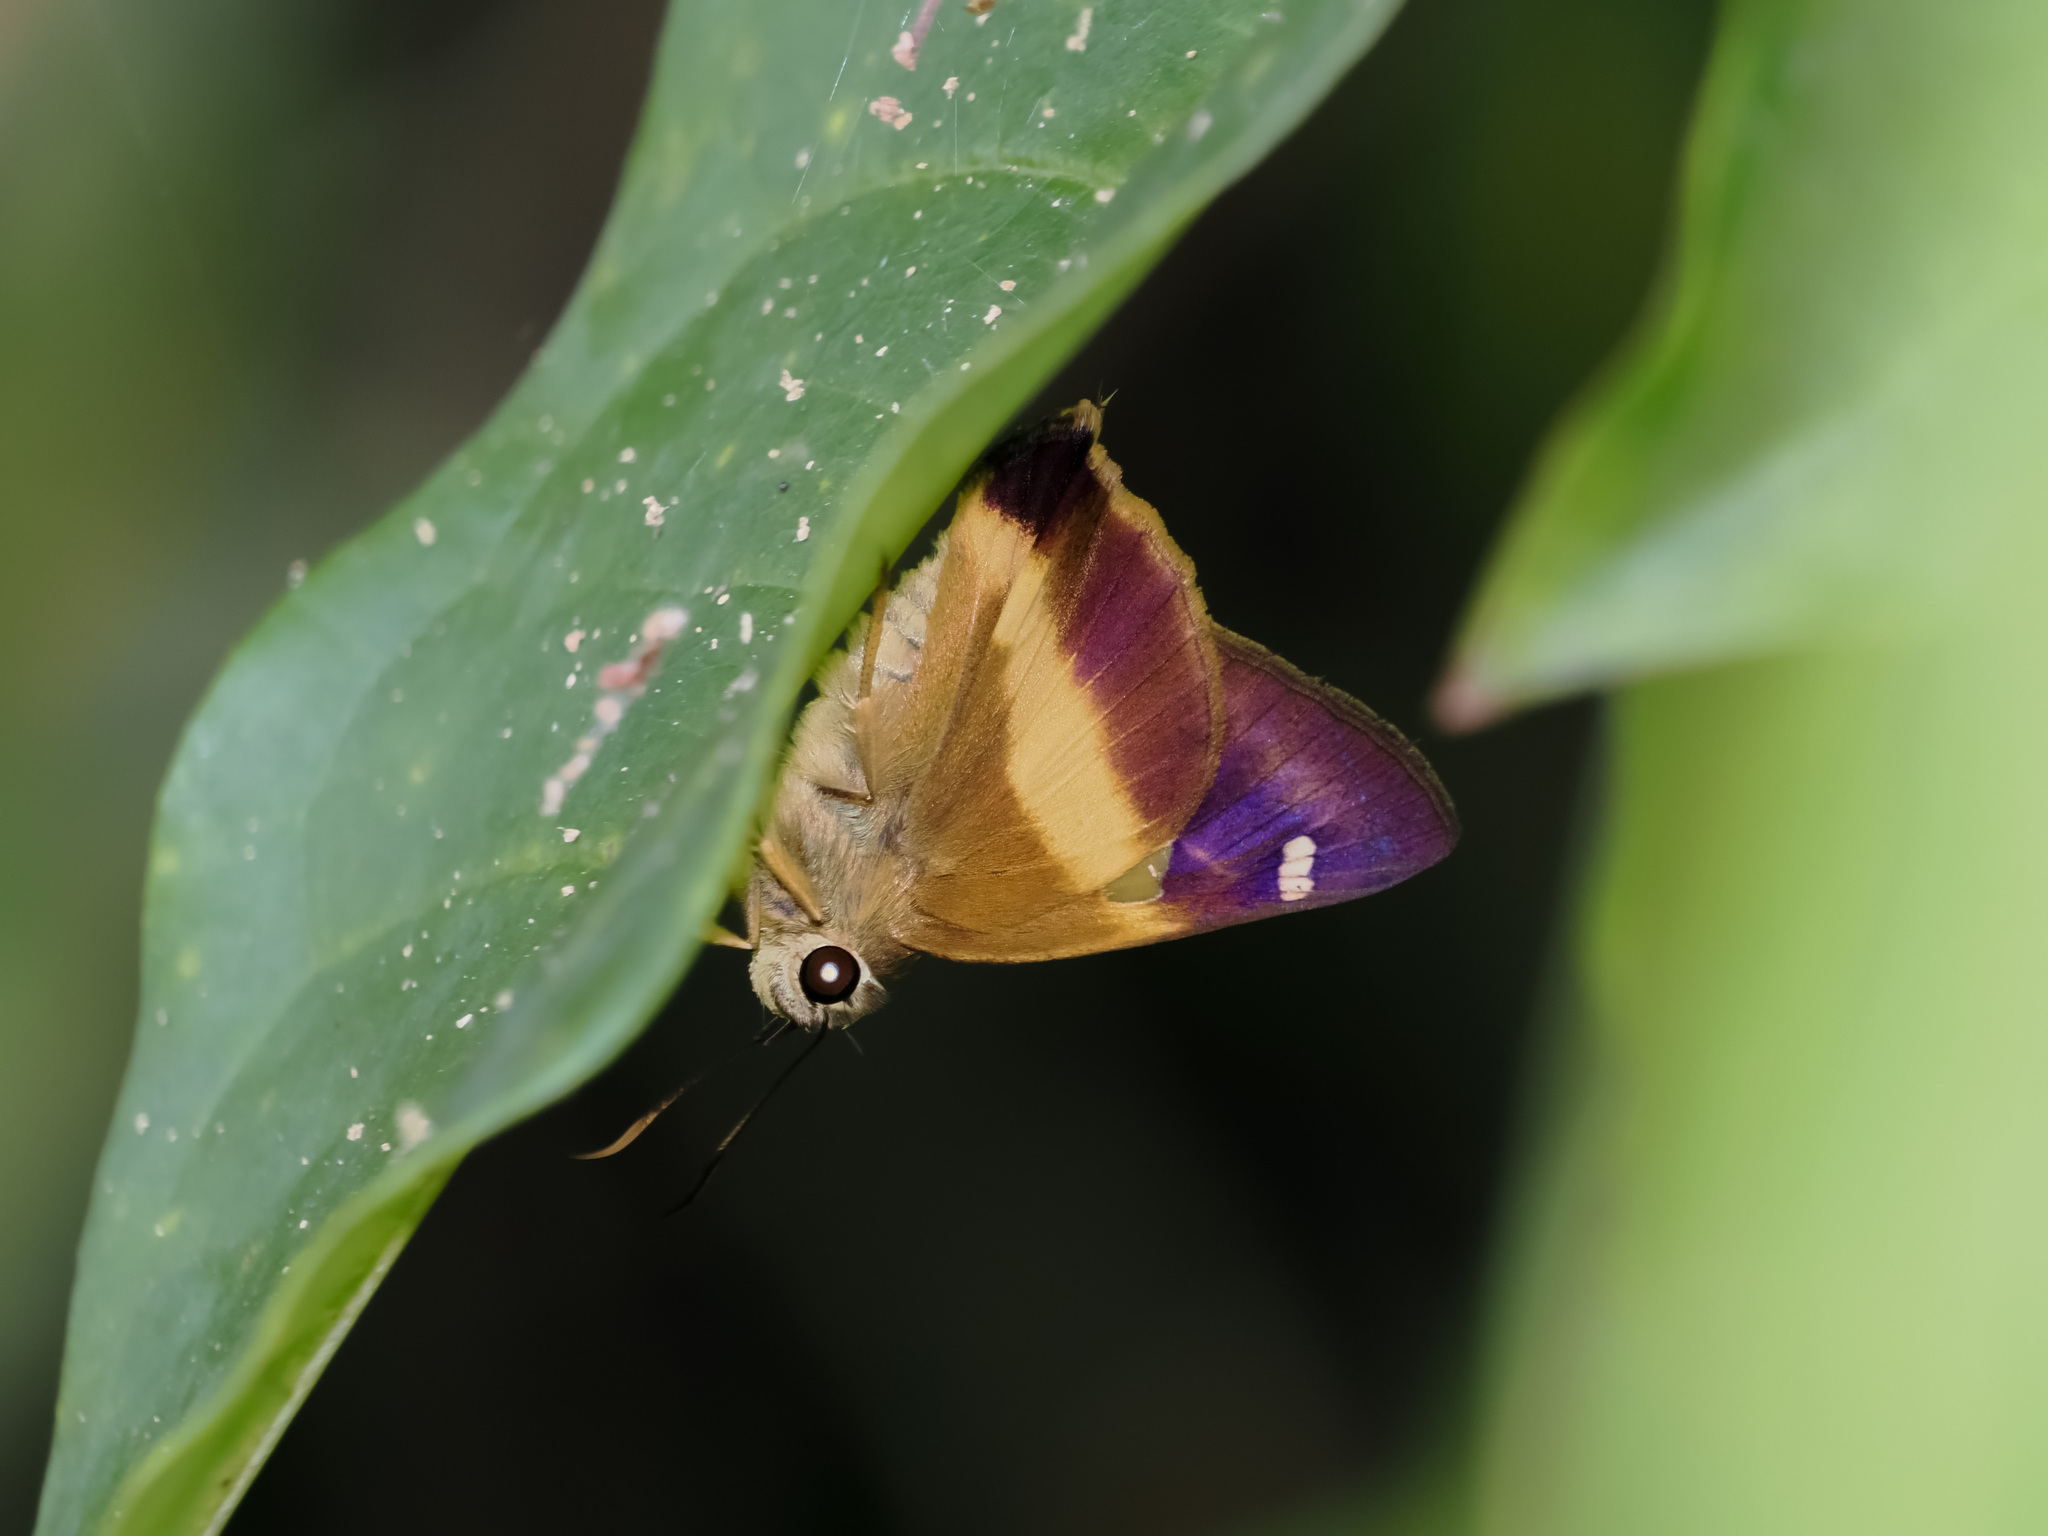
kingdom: Animalia
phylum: Arthropoda
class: Insecta
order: Lepidoptera
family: Hesperiidae
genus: Hasora
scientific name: Hasora schoenherr
